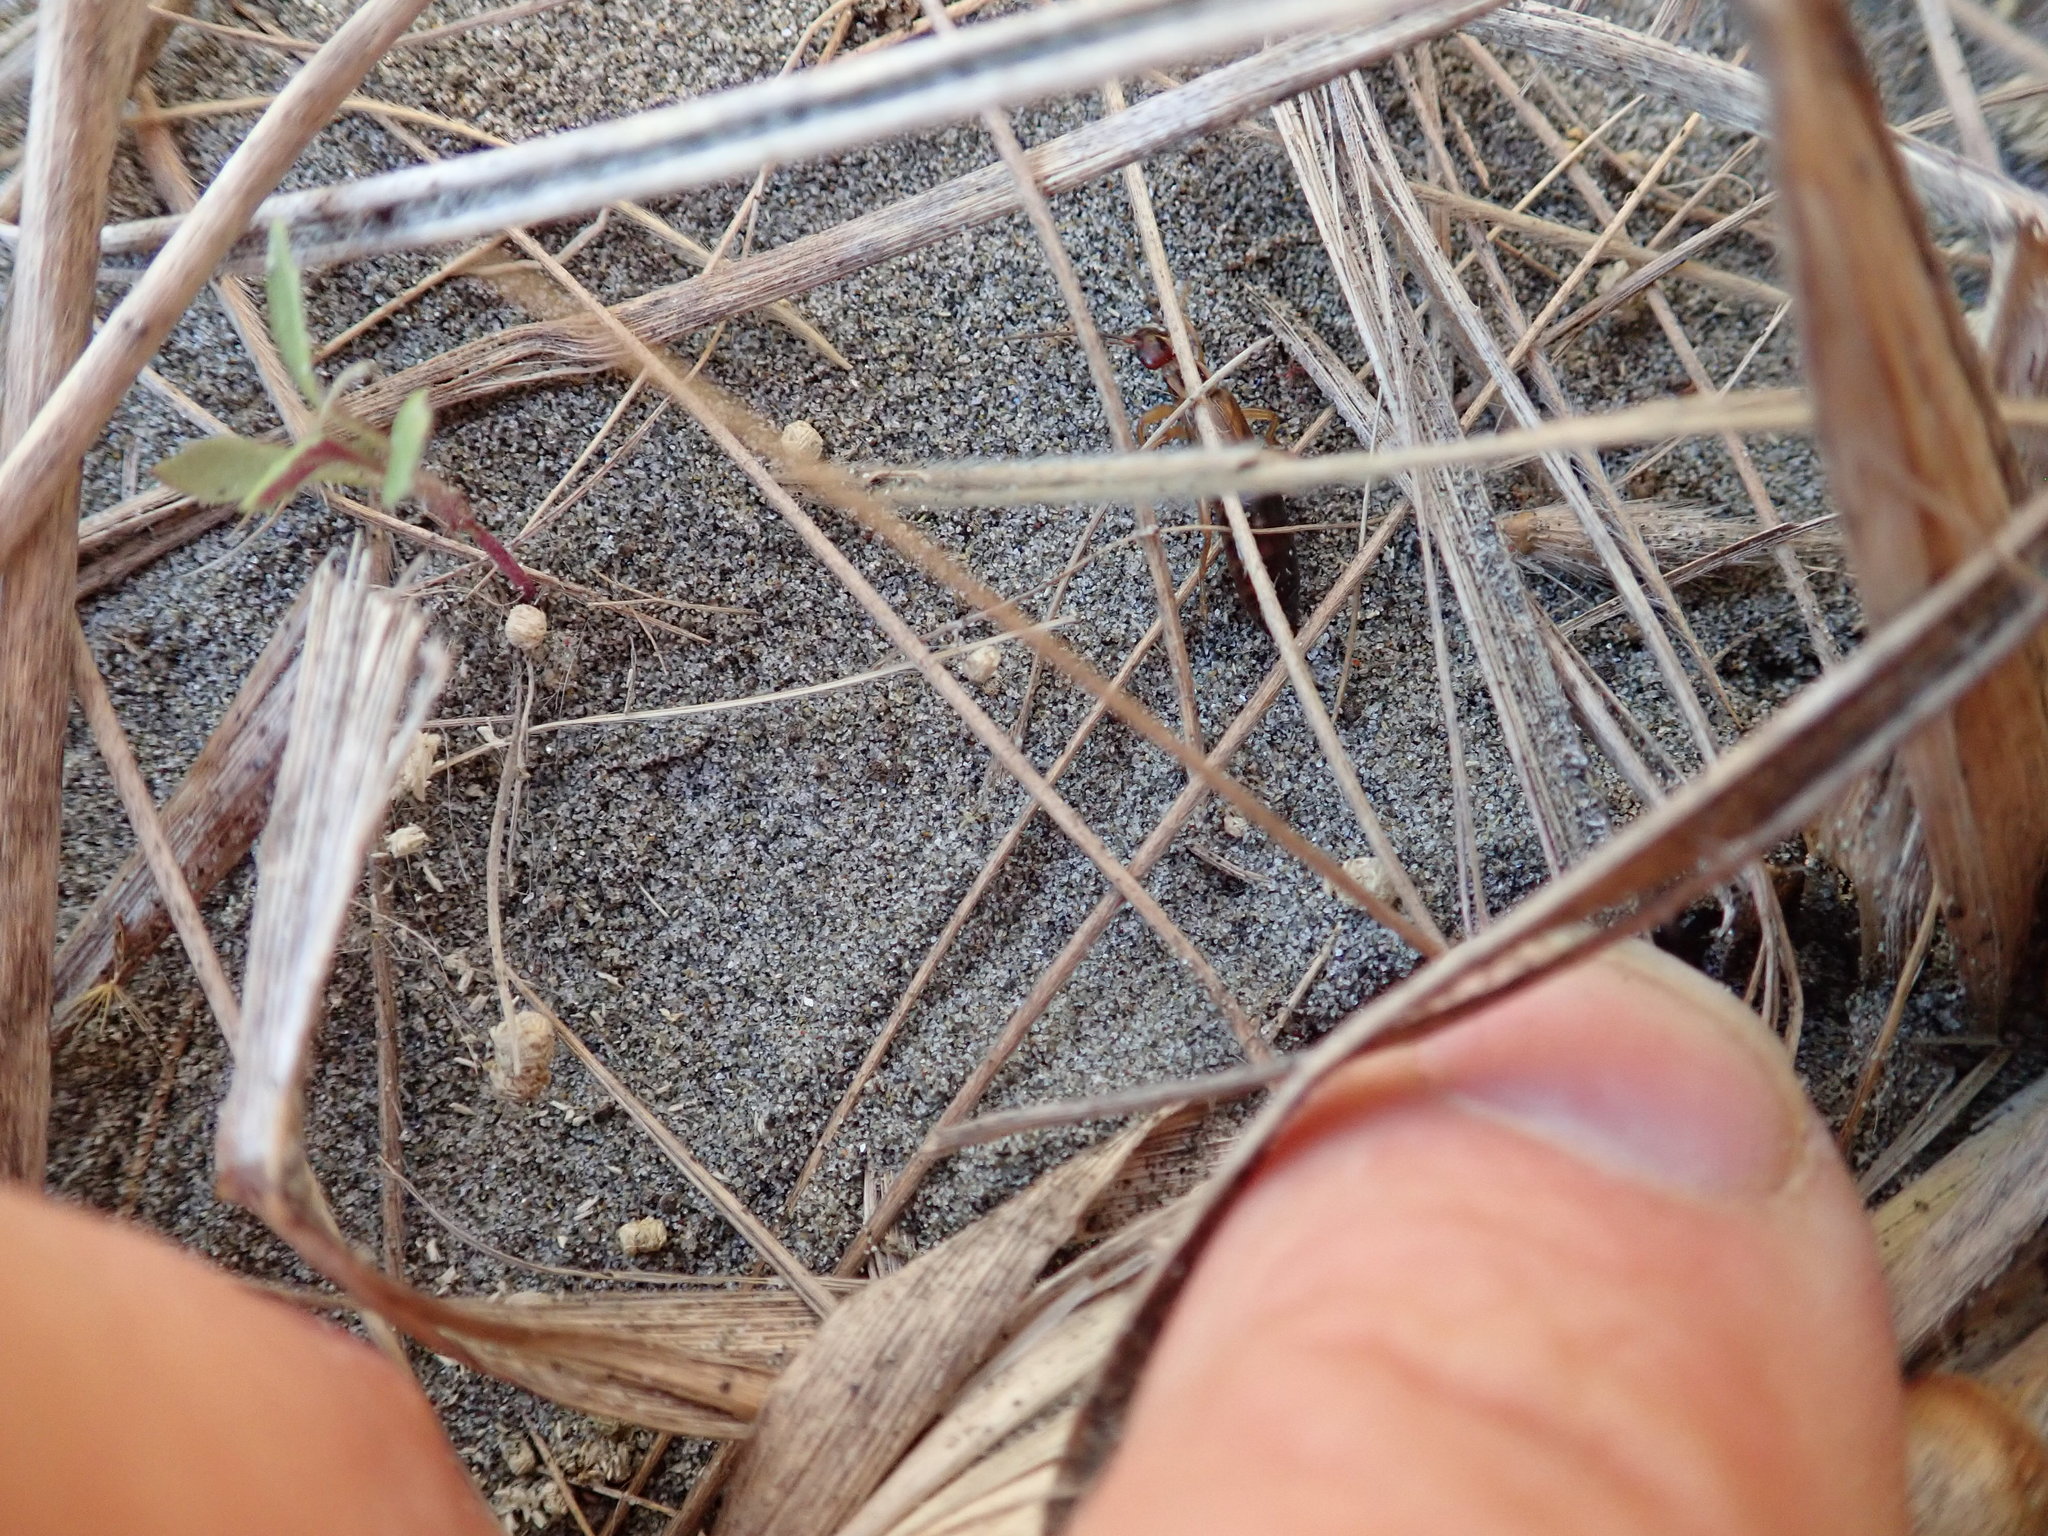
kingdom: Animalia
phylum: Arthropoda
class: Insecta
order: Dermaptera
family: Forficulidae
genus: Forficula
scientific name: Forficula
